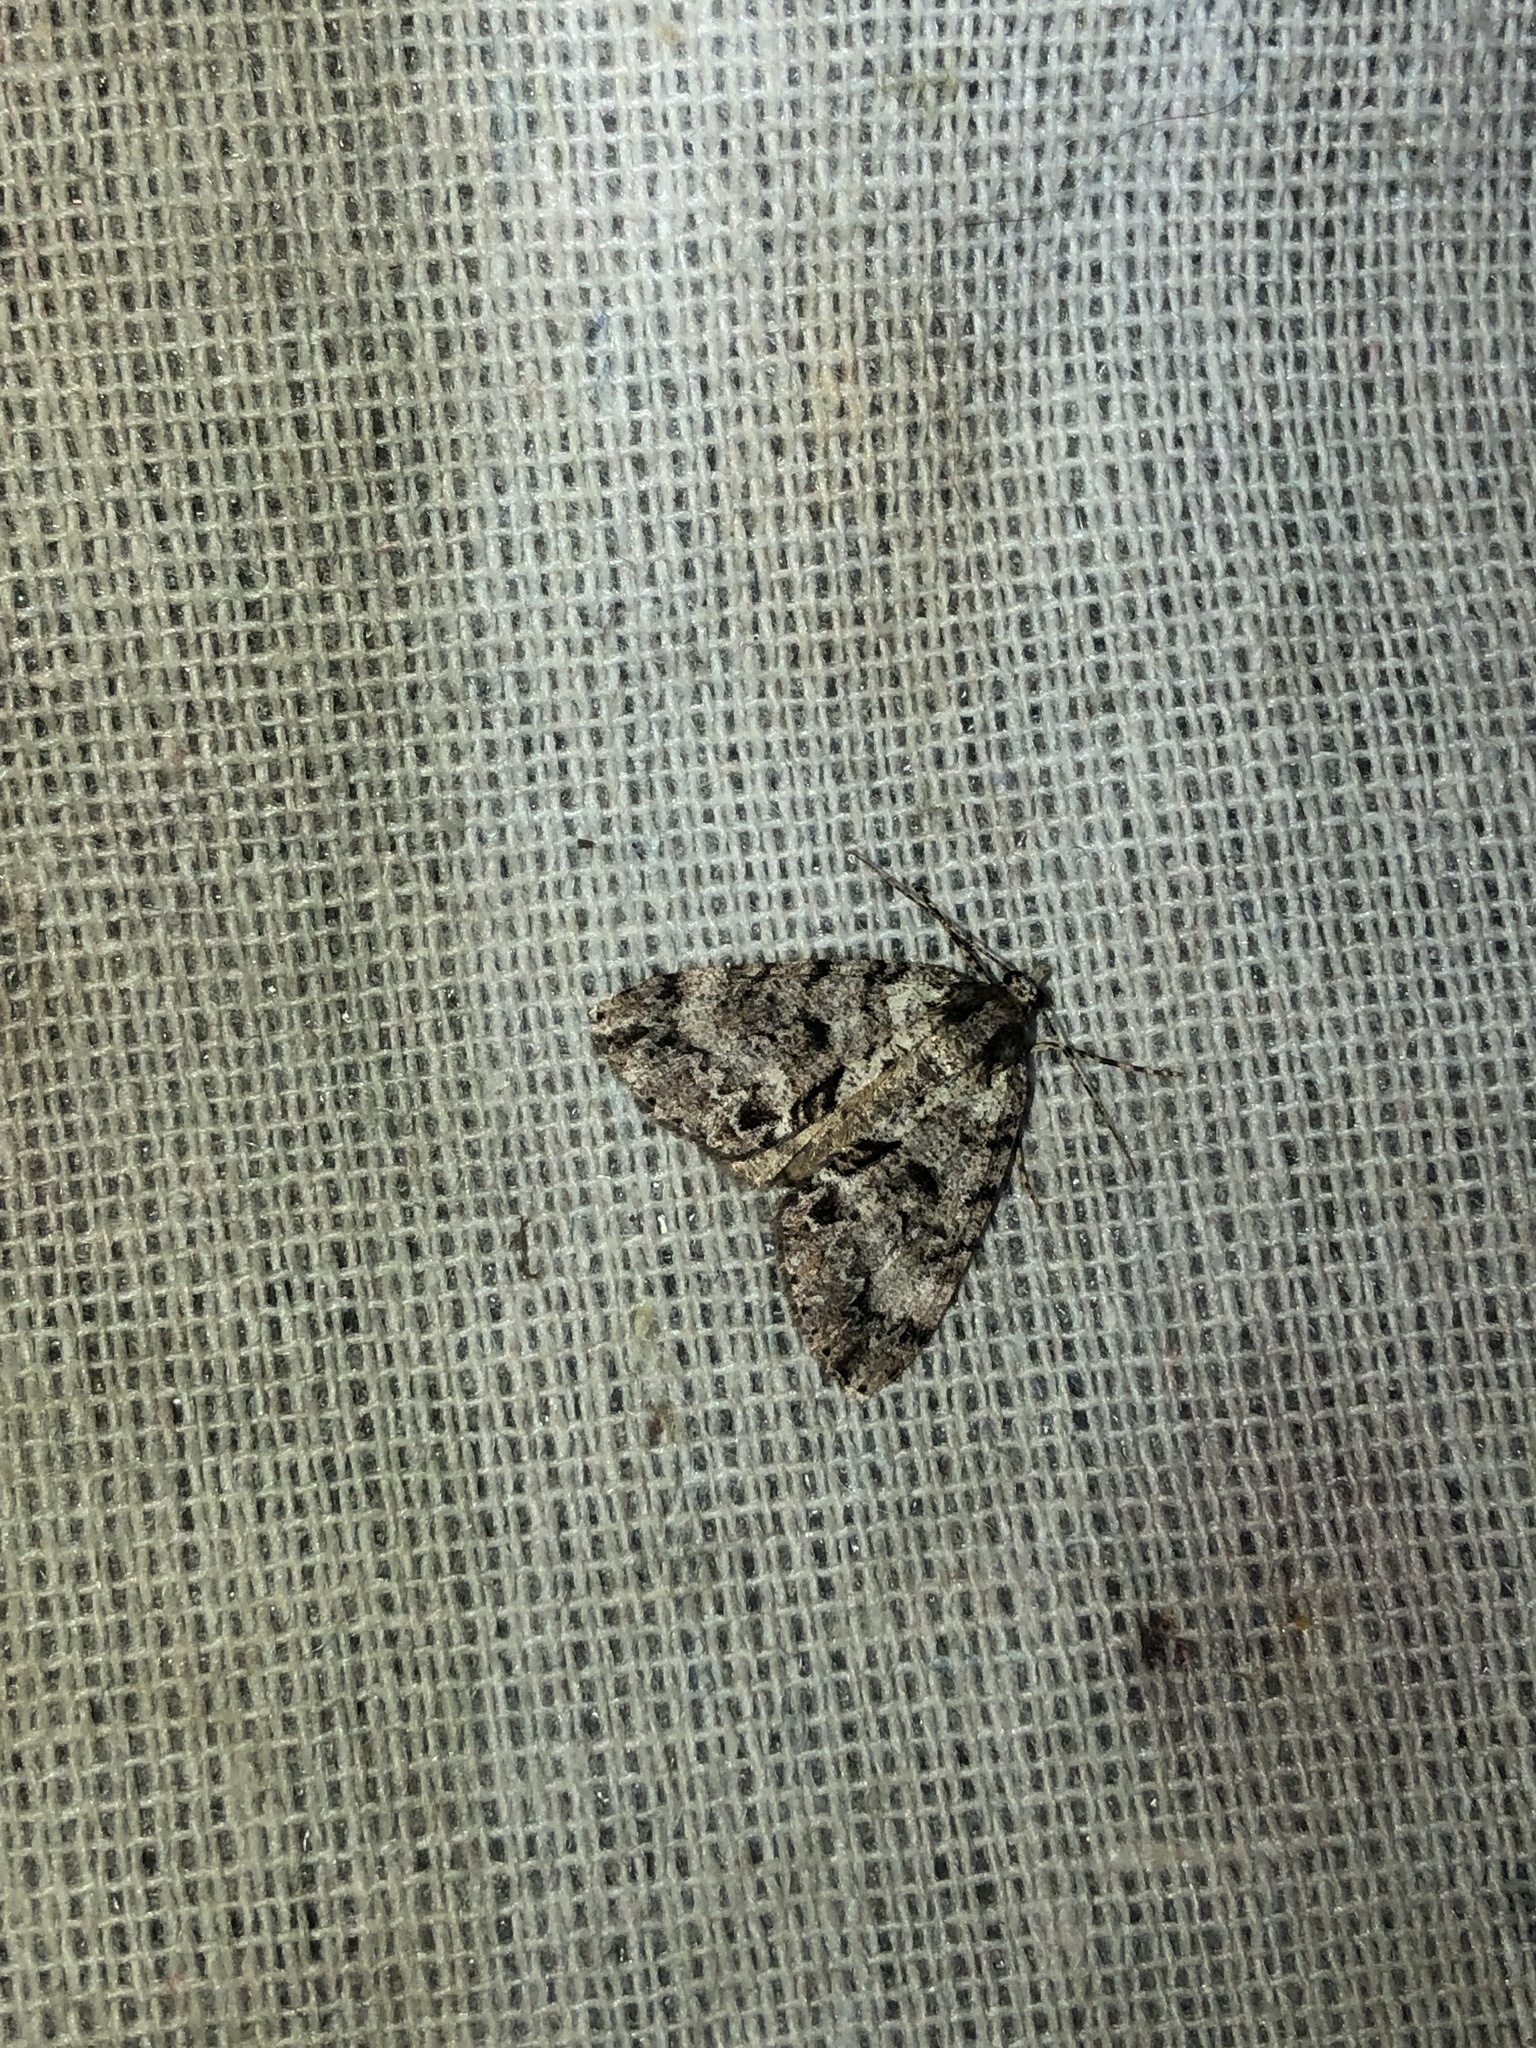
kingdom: Animalia
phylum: Arthropoda
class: Insecta
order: Lepidoptera
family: Geometridae
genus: Pseudocoremia
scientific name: Pseudocoremia suavis
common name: Common forest looper
